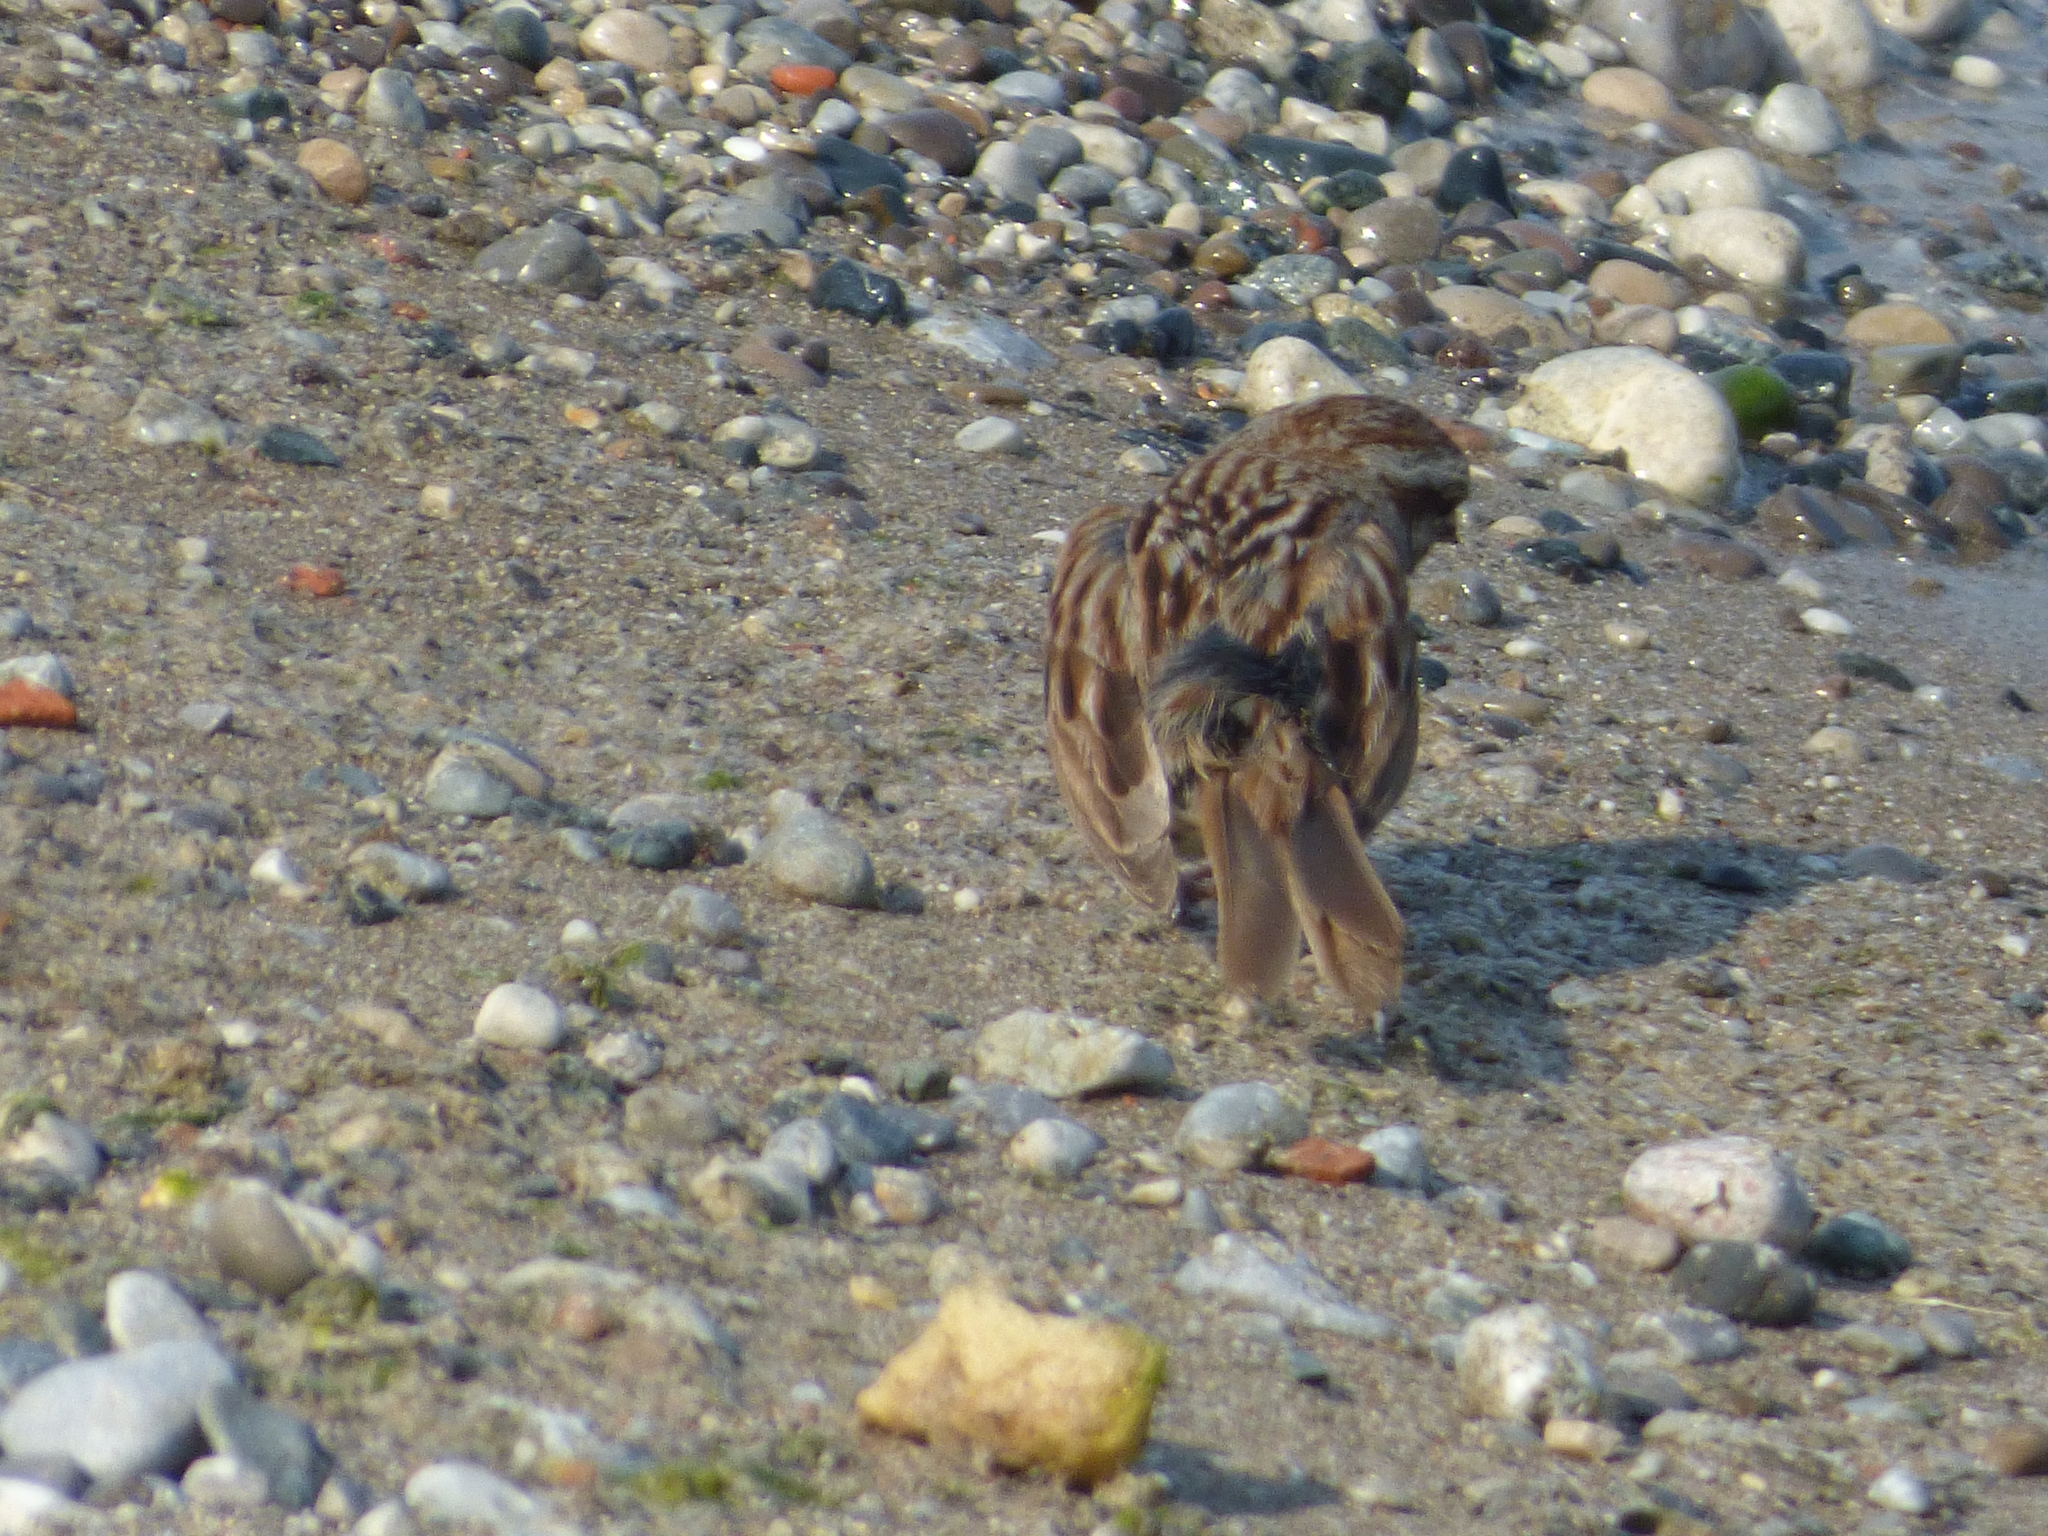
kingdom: Animalia
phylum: Chordata
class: Aves
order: Passeriformes
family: Passerellidae
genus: Melospiza
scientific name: Melospiza melodia
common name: Song sparrow
